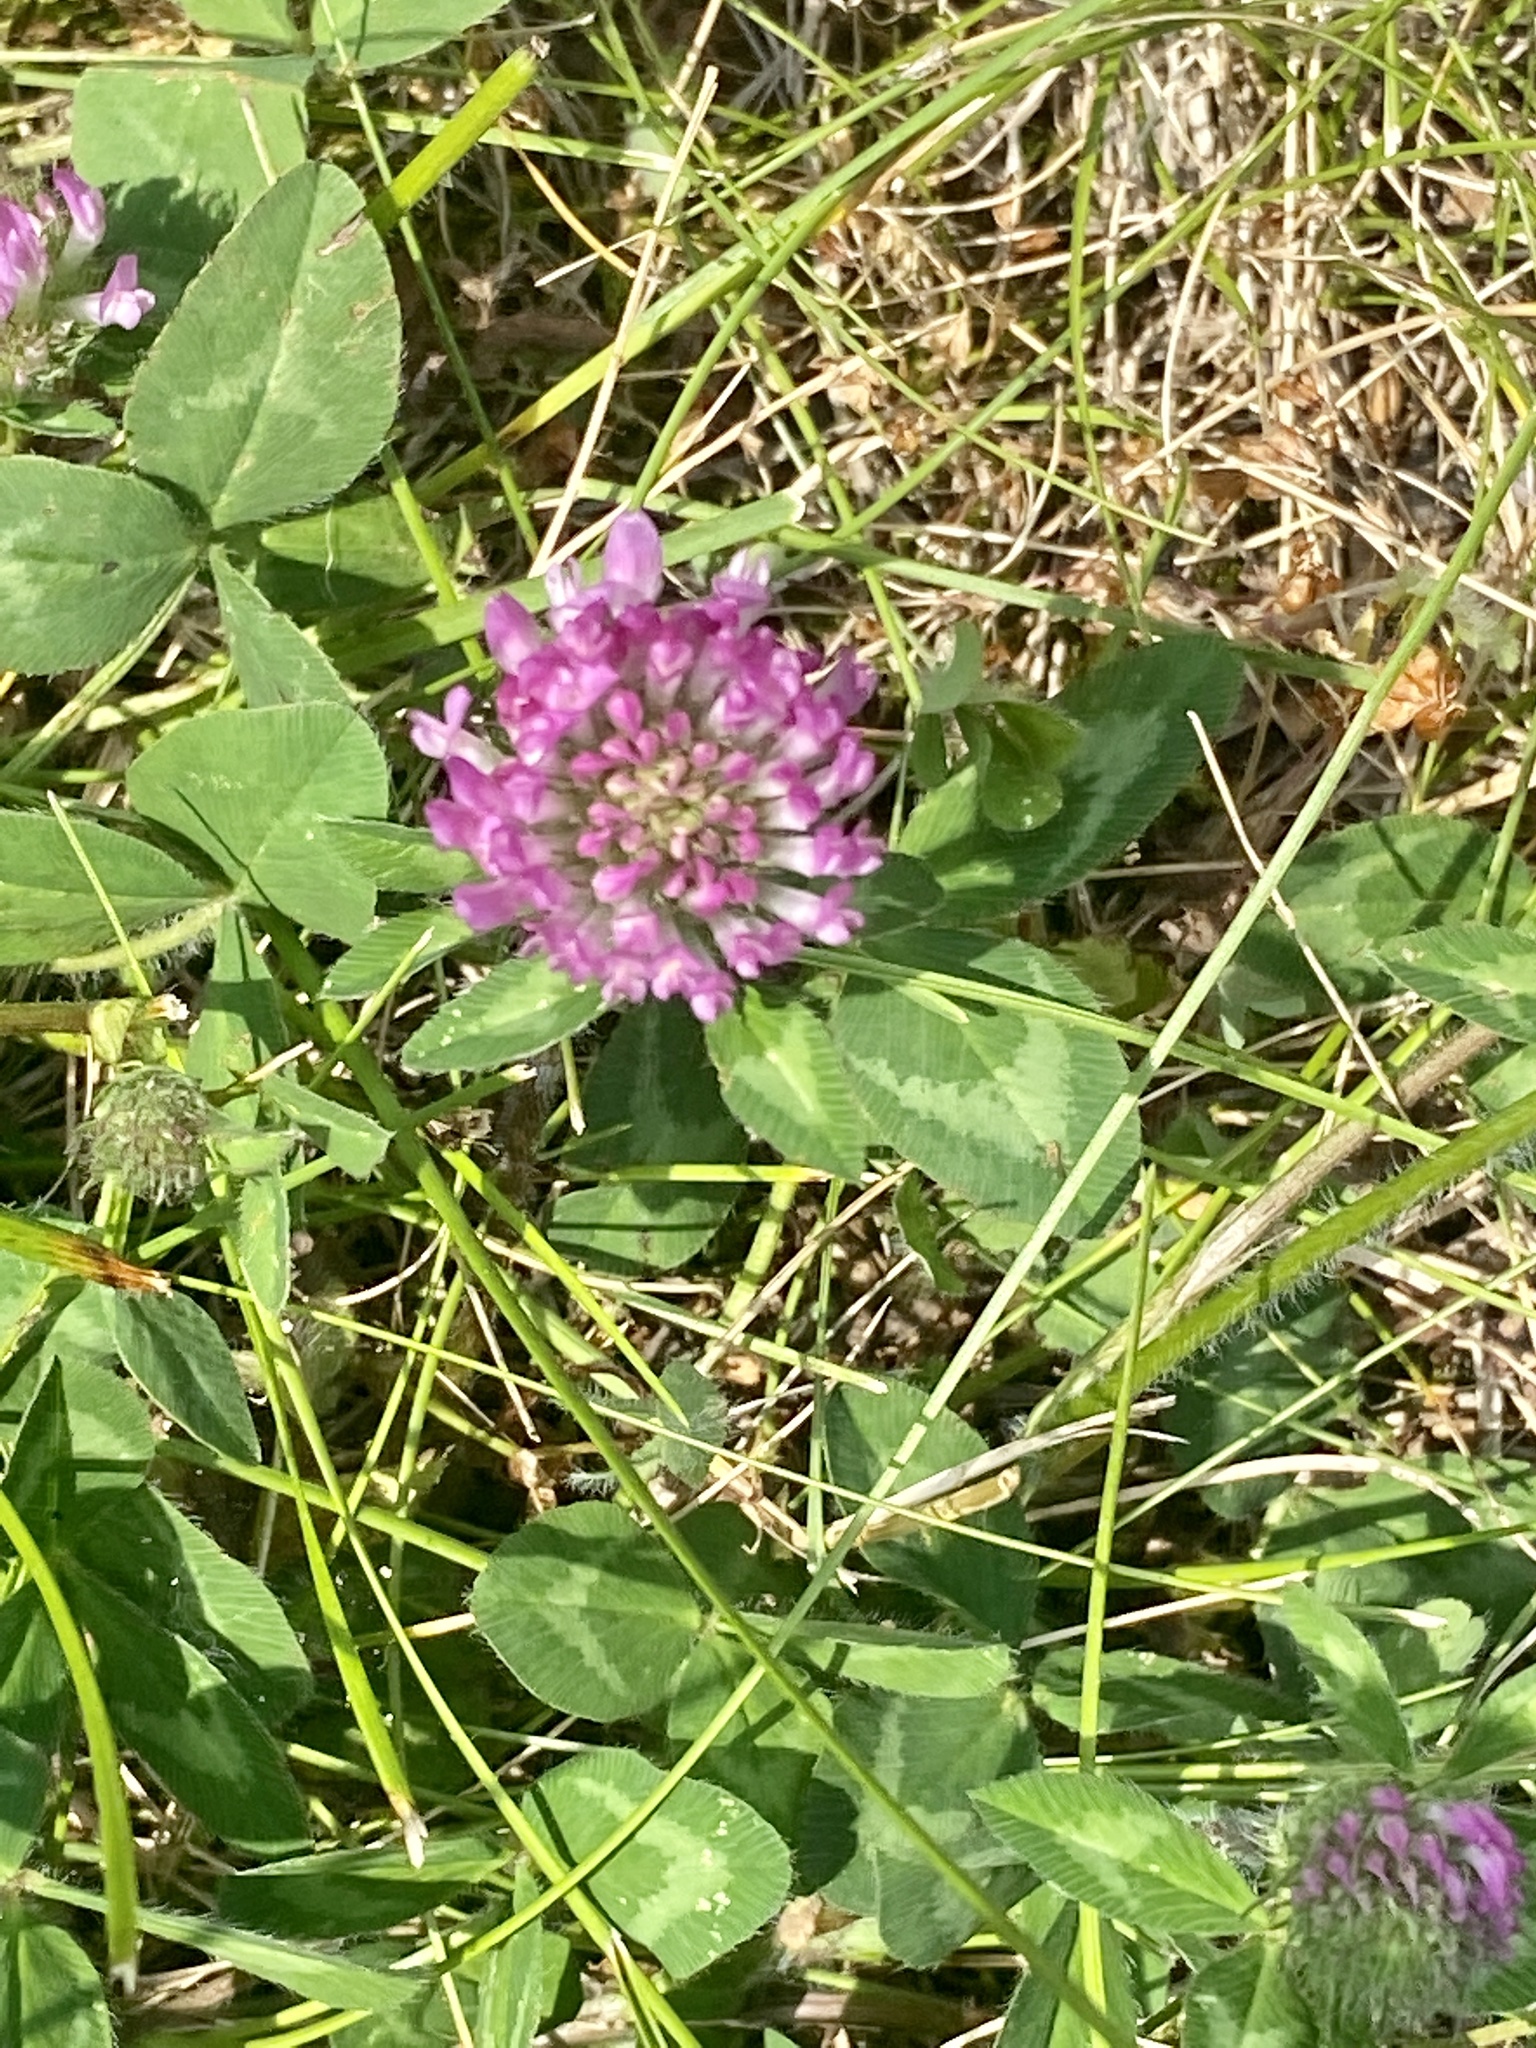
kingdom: Plantae
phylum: Tracheophyta
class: Magnoliopsida
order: Fabales
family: Fabaceae
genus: Trifolium
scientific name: Trifolium pratense
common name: Red clover
